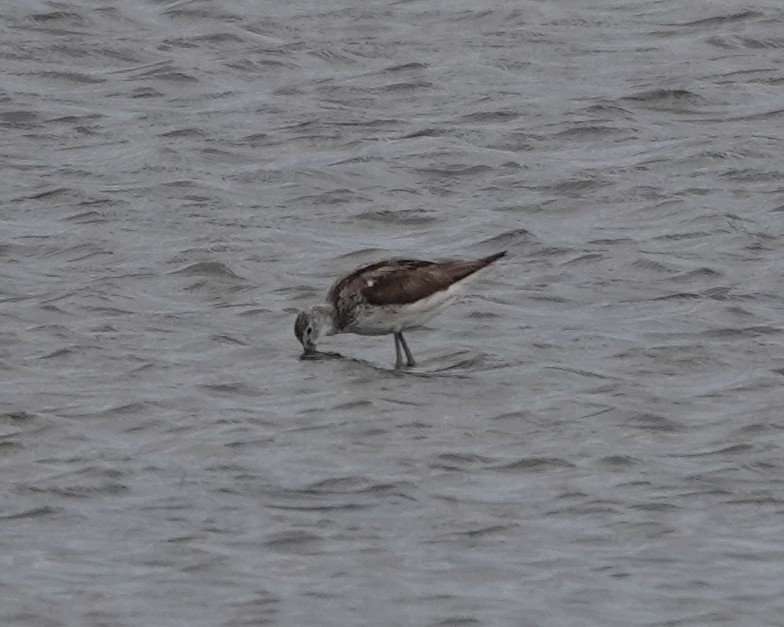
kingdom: Animalia
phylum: Chordata
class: Aves
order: Charadriiformes
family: Scolopacidae
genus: Tringa
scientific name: Tringa nebularia
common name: Common greenshank
